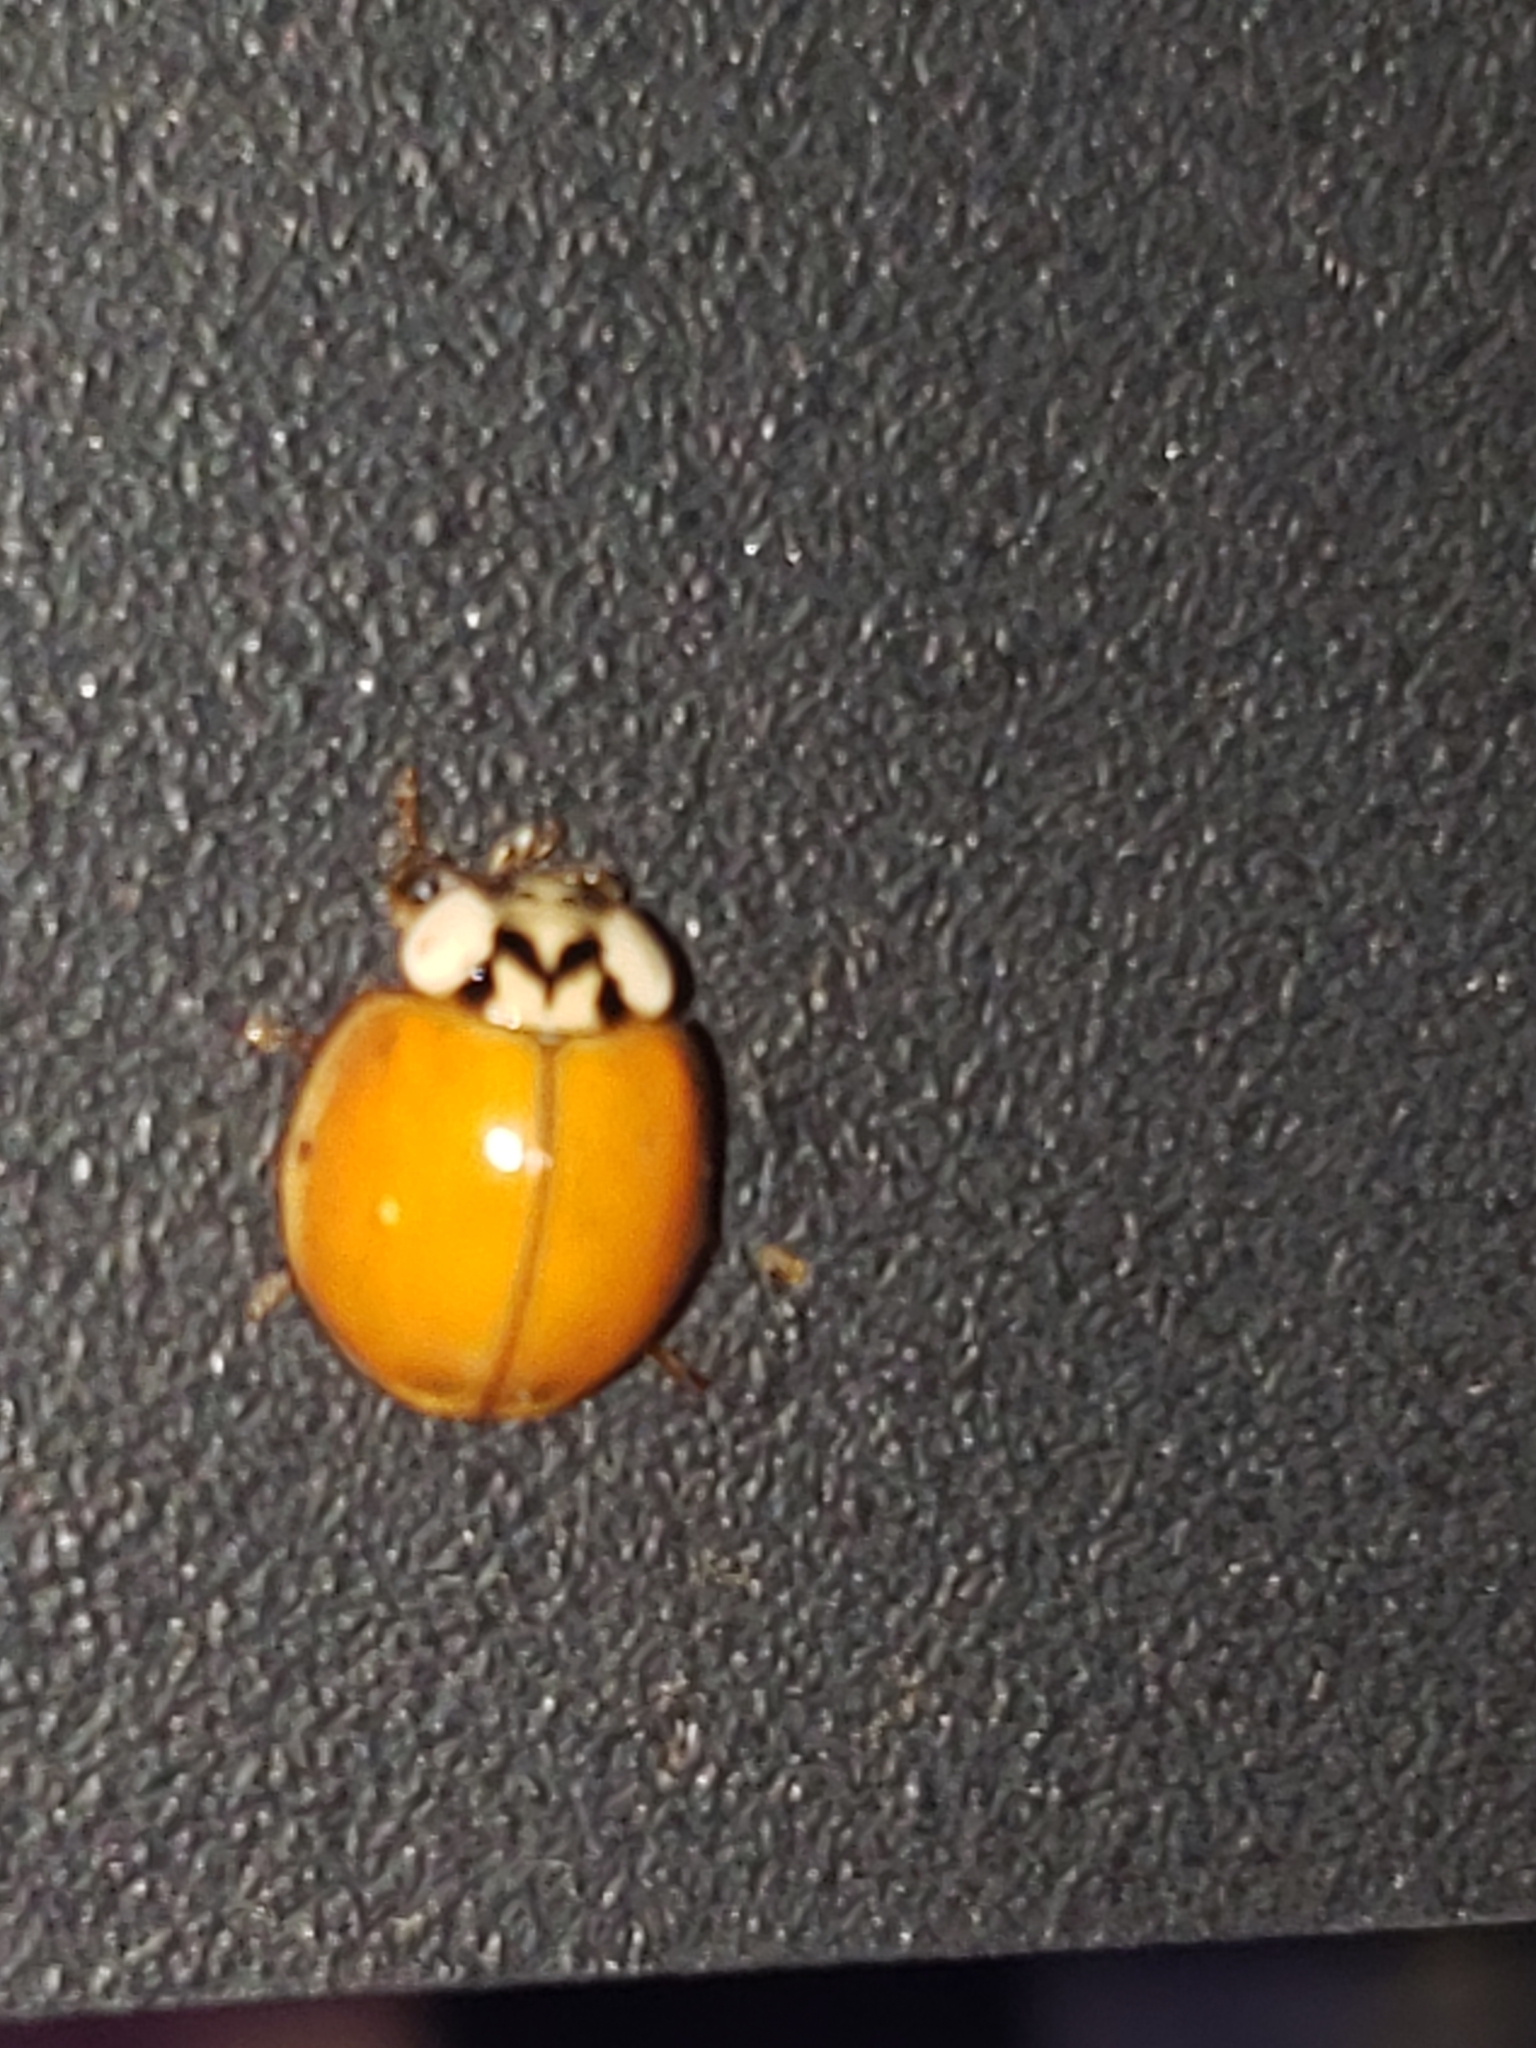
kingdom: Animalia
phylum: Arthropoda
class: Insecta
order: Coleoptera
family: Coccinellidae
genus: Harmonia
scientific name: Harmonia axyridis
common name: Harlequin ladybird
